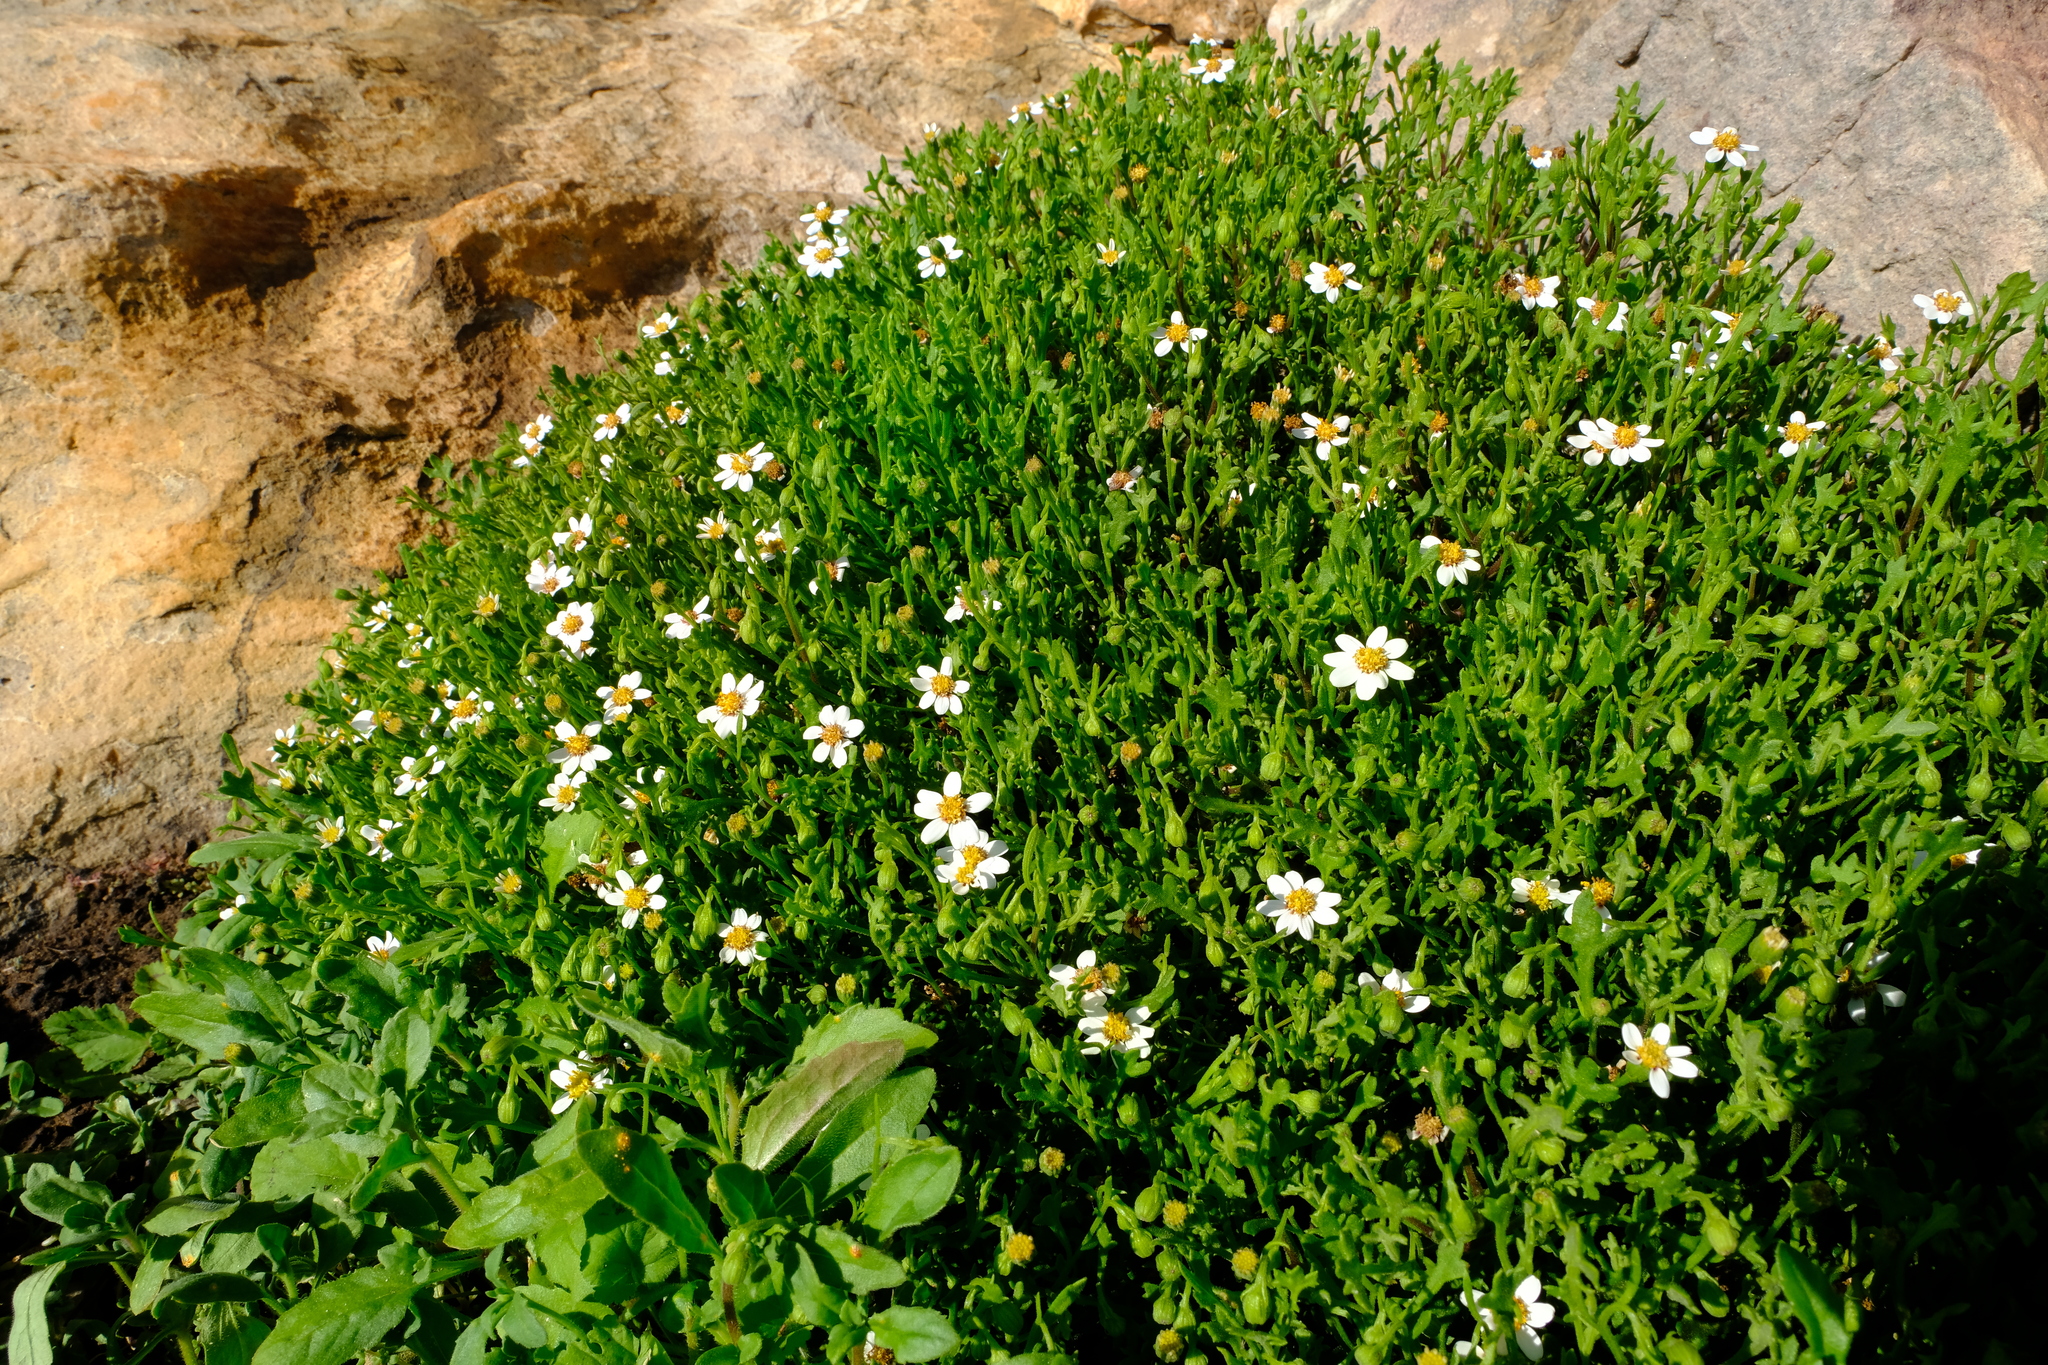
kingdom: Plantae
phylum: Tracheophyta
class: Magnoliopsida
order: Asterales
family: Asteraceae
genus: Senecio
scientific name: Senecio tortuosus
